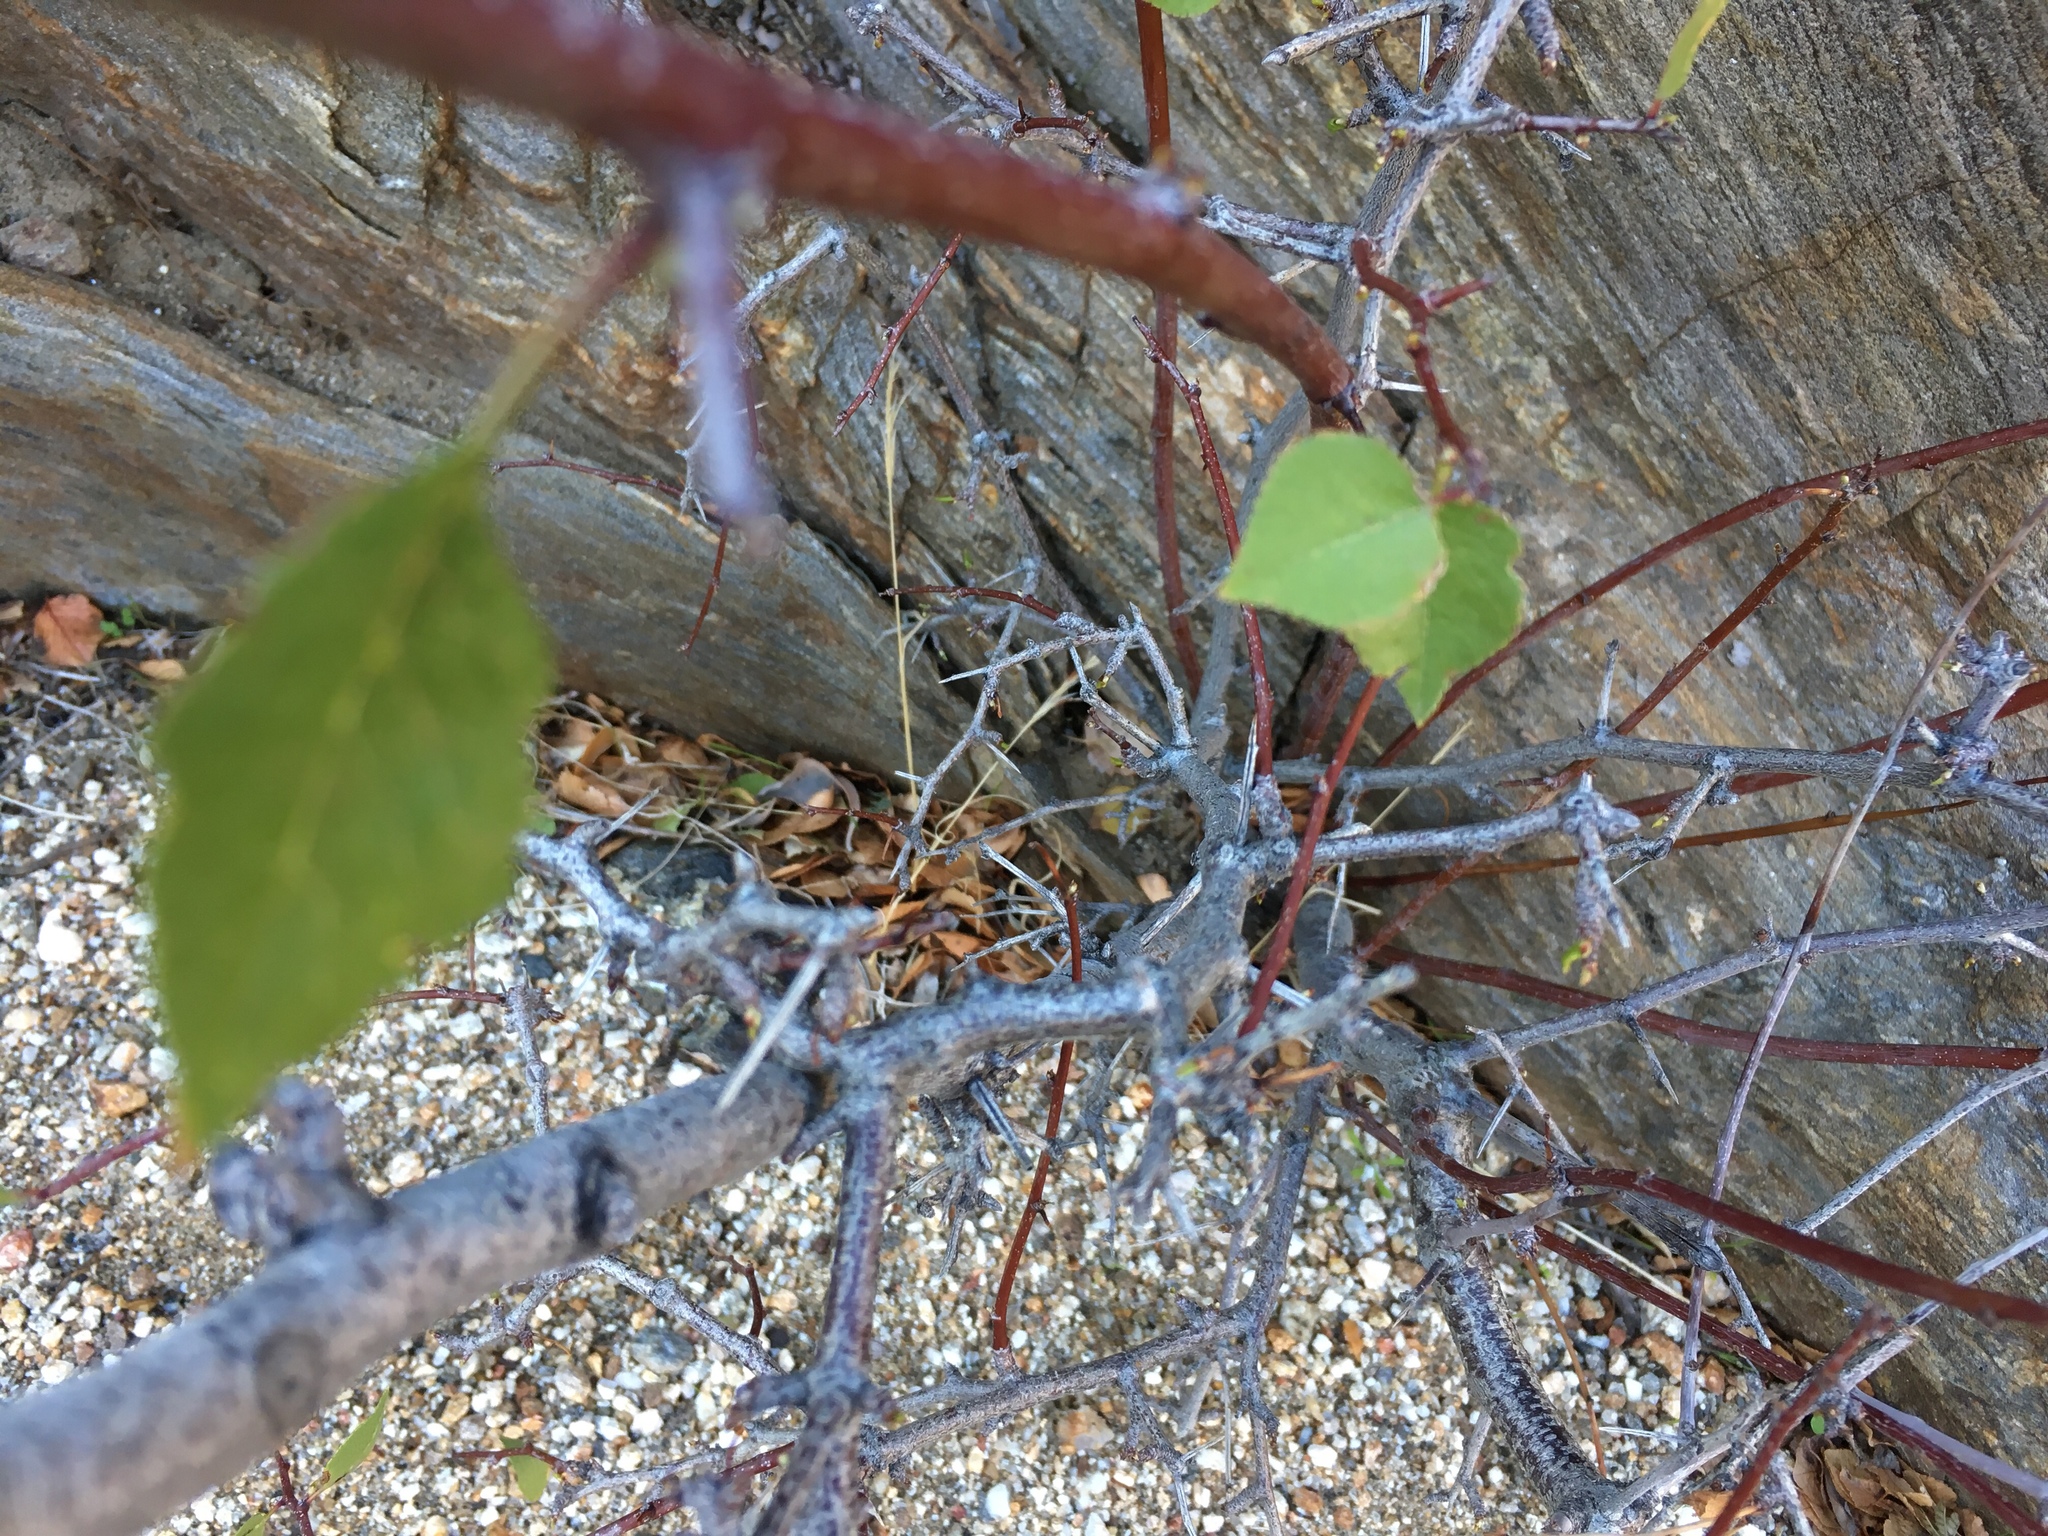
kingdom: Plantae
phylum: Tracheophyta
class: Magnoliopsida
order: Rosales
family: Rosaceae
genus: Prunus
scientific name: Prunus fremontii
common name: Desert apricot
